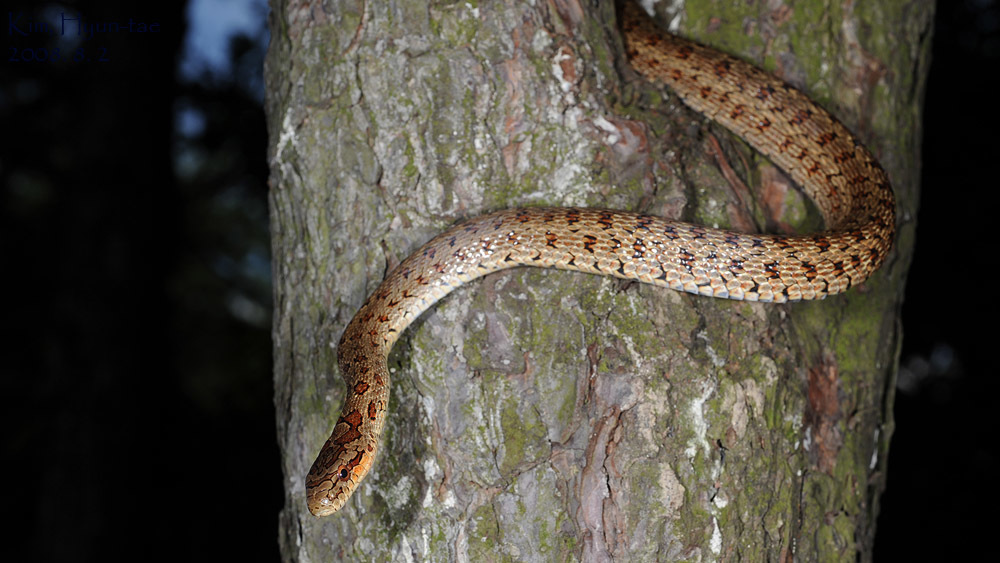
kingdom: Animalia
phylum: Chordata
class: Squamata
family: Colubridae
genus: Elaphe
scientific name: Elaphe dione
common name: Dione ratsnake
